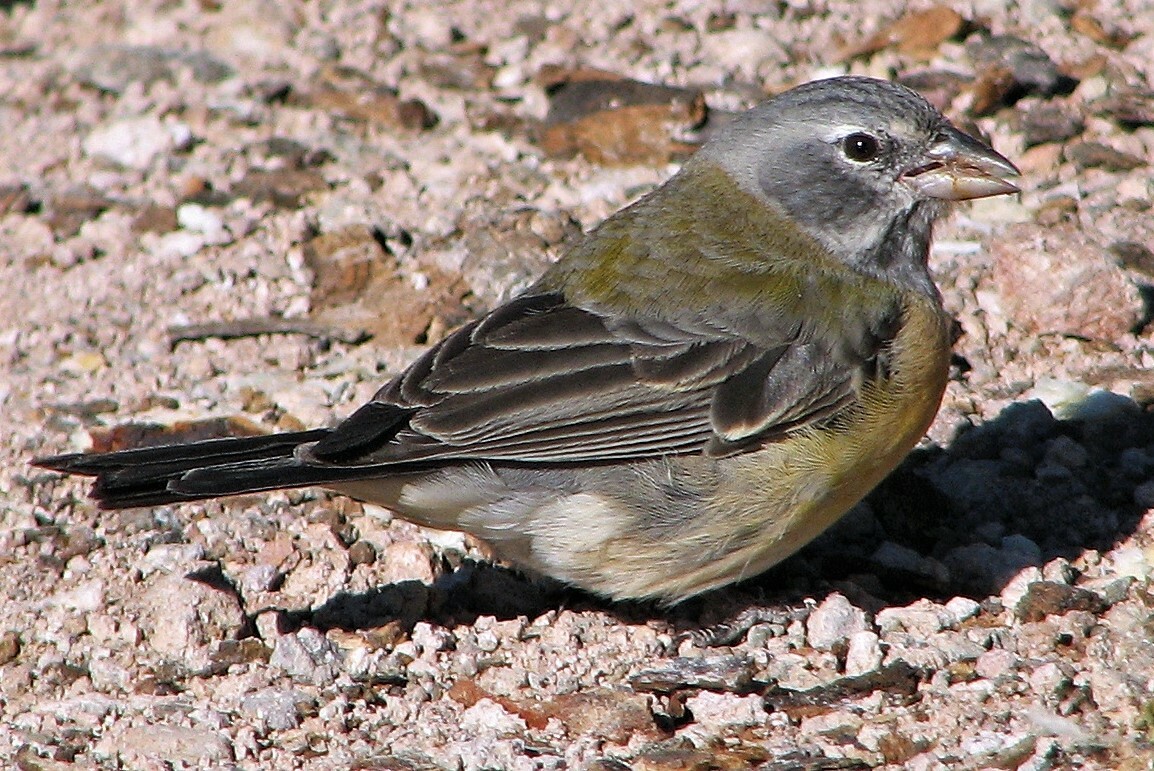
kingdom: Animalia
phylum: Chordata
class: Aves
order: Passeriformes
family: Thraupidae
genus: Phrygilus
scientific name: Phrygilus gayi
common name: Grey-hooded sierra finch
